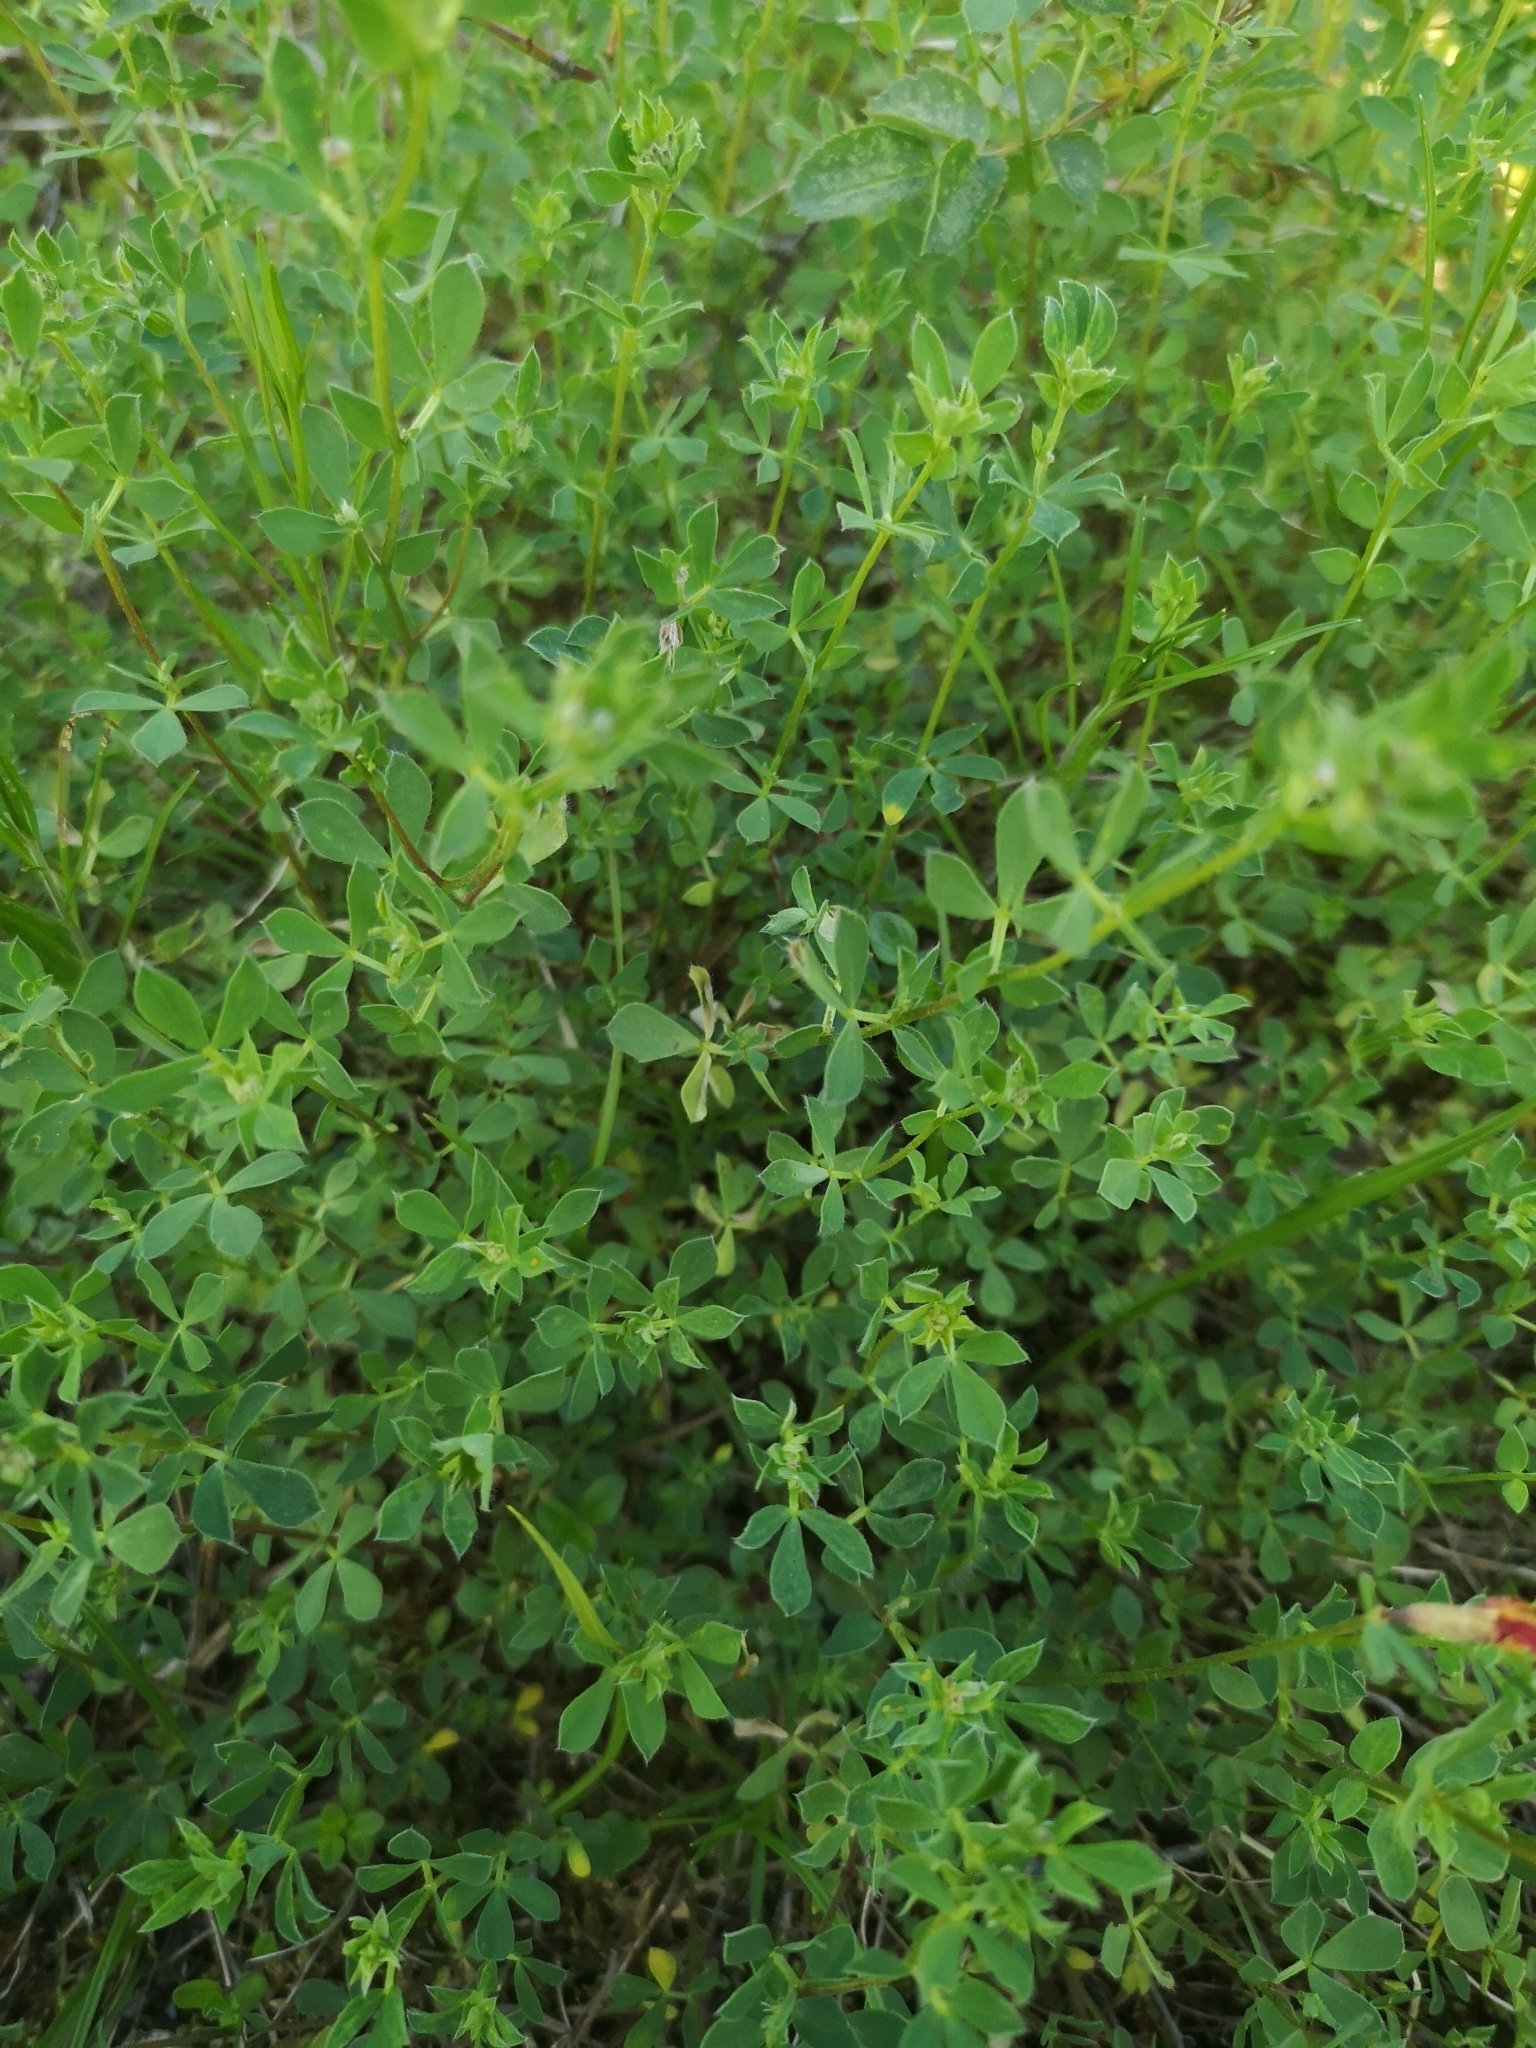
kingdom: Plantae
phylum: Tracheophyta
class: Magnoliopsida
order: Fabales
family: Fabaceae
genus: Lotus
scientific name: Lotus corniculatus
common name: Common bird's-foot-trefoil
